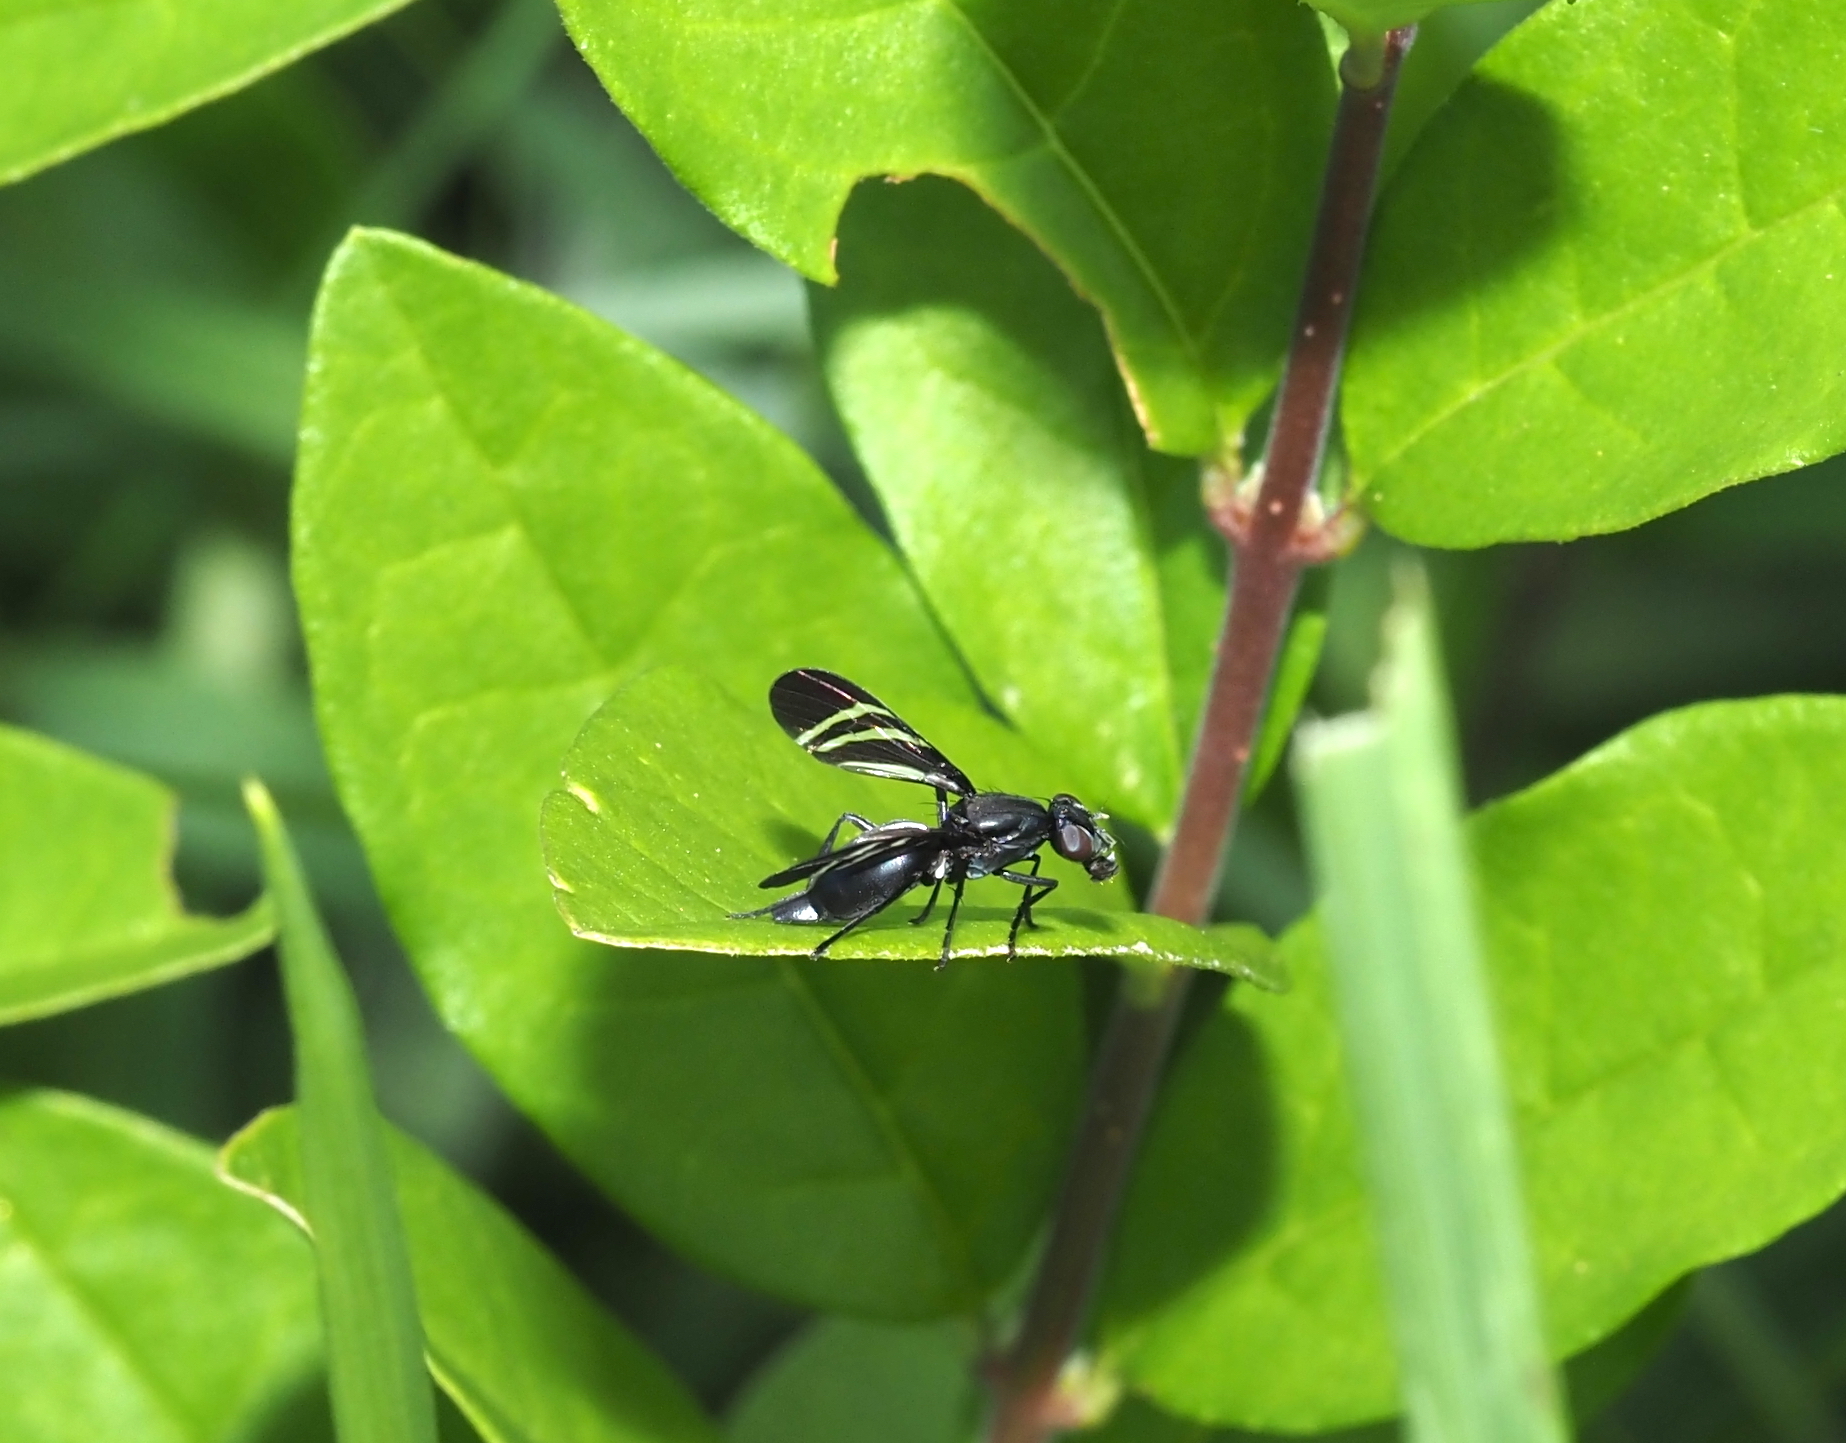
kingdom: Animalia
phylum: Arthropoda
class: Insecta
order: Diptera
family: Ulidiidae
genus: Tritoxa
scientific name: Tritoxa flexa
